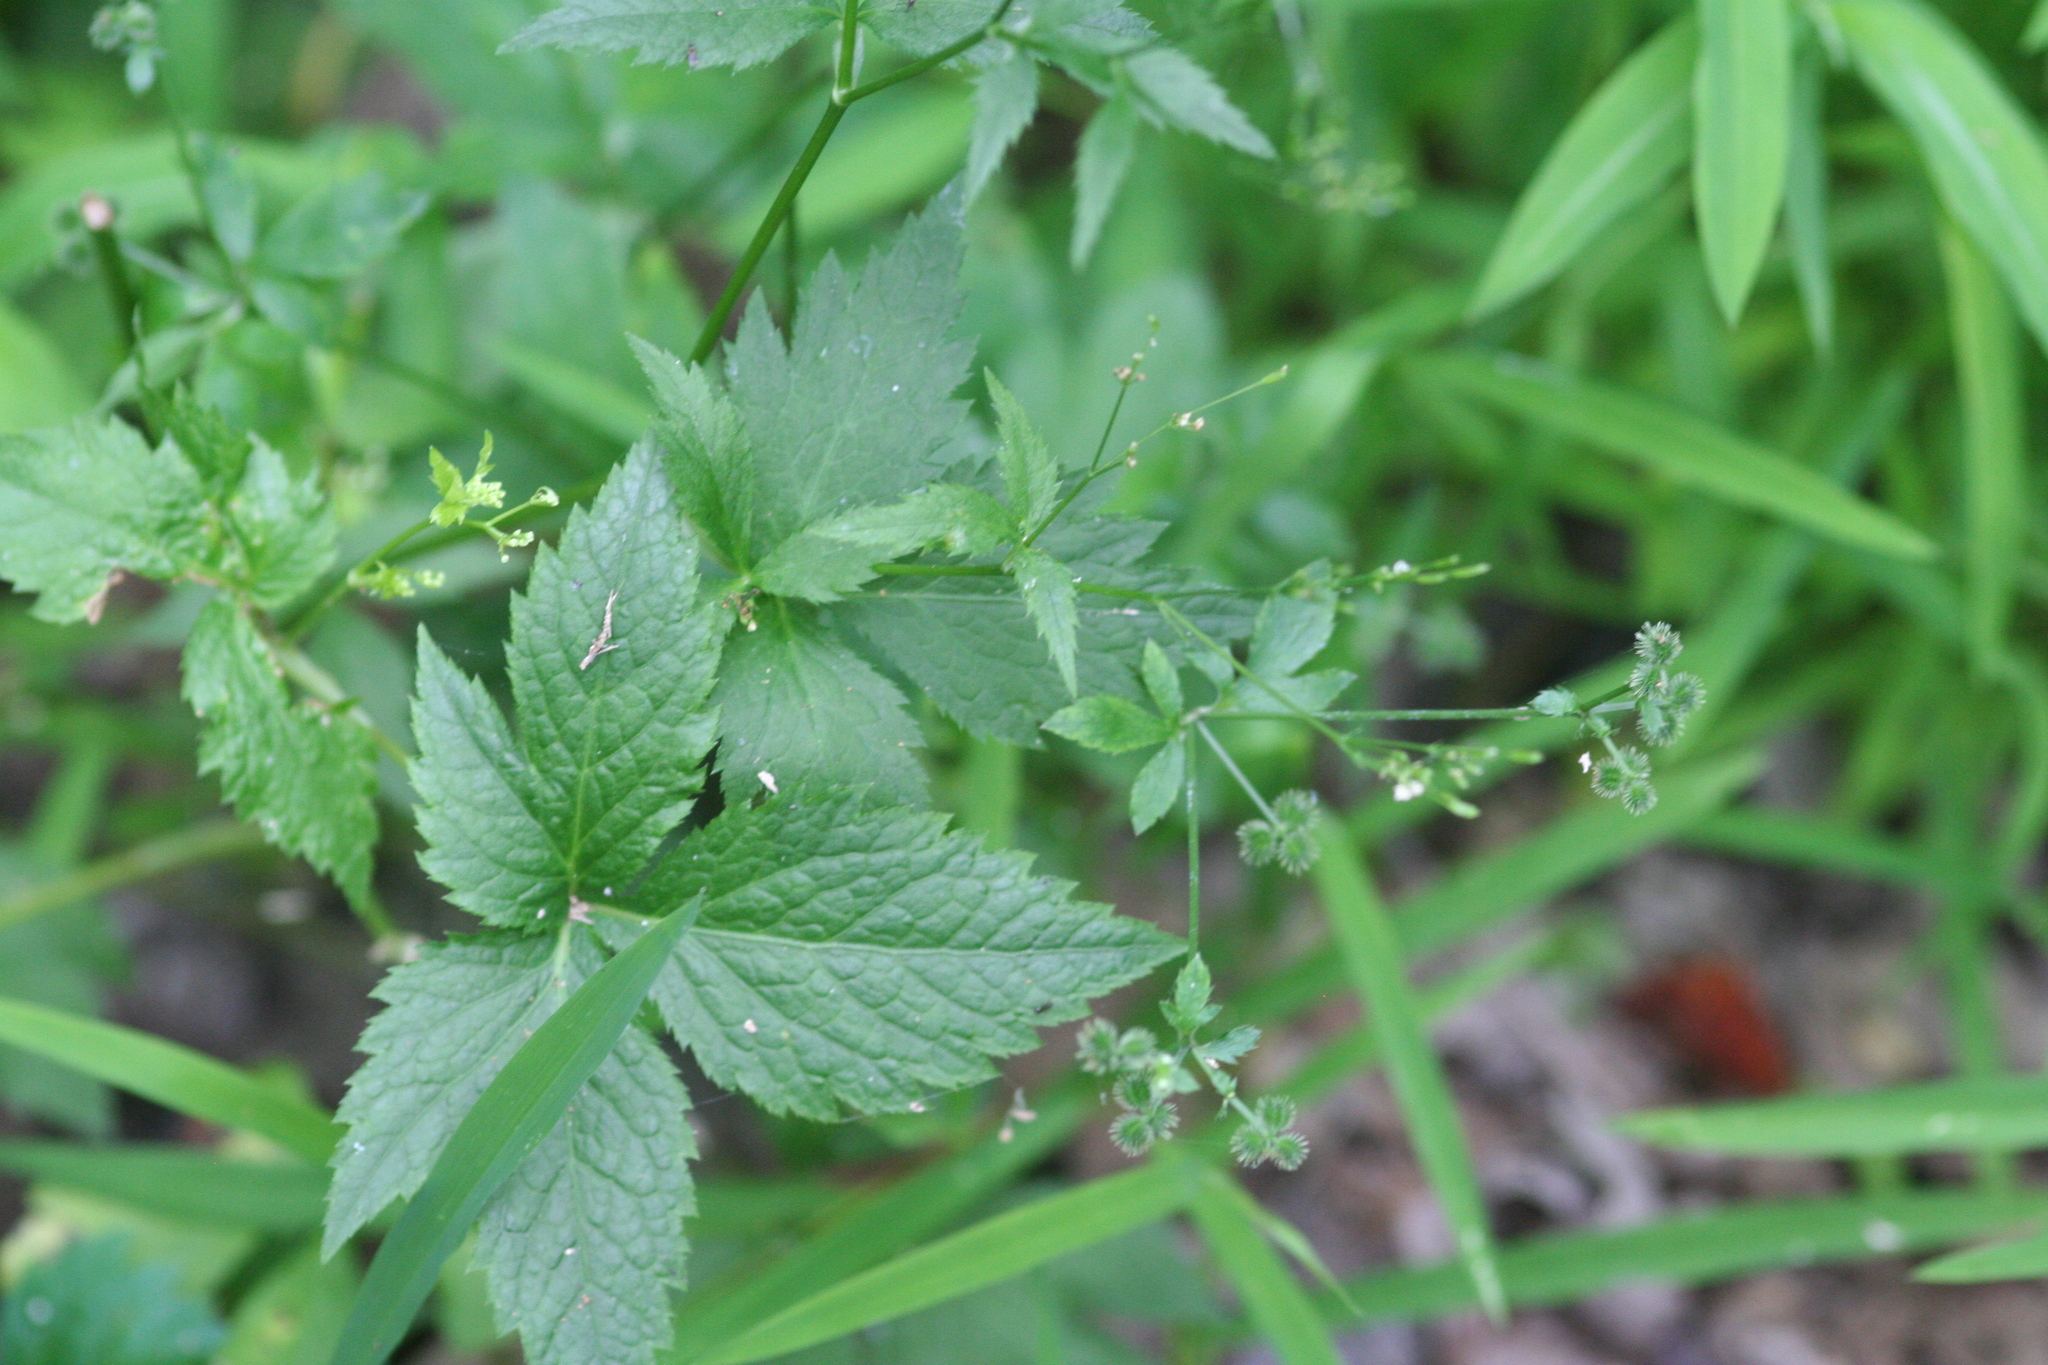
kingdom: Plantae
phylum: Tracheophyta
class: Magnoliopsida
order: Apiales
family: Apiaceae
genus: Cryptotaenia
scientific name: Cryptotaenia canadensis
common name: Honewort
